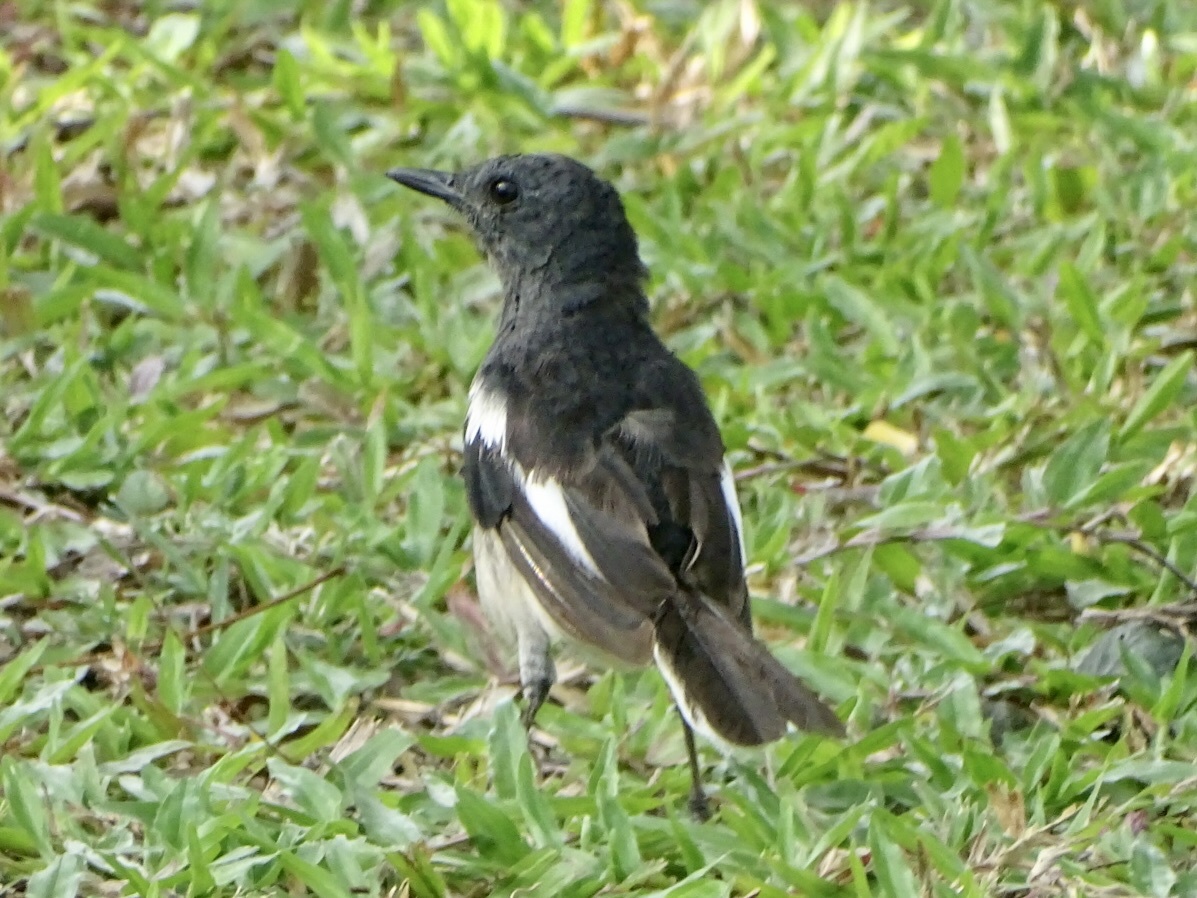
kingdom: Animalia
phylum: Chordata
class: Aves
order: Passeriformes
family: Muscicapidae
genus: Copsychus
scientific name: Copsychus saularis
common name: Oriental magpie-robin
